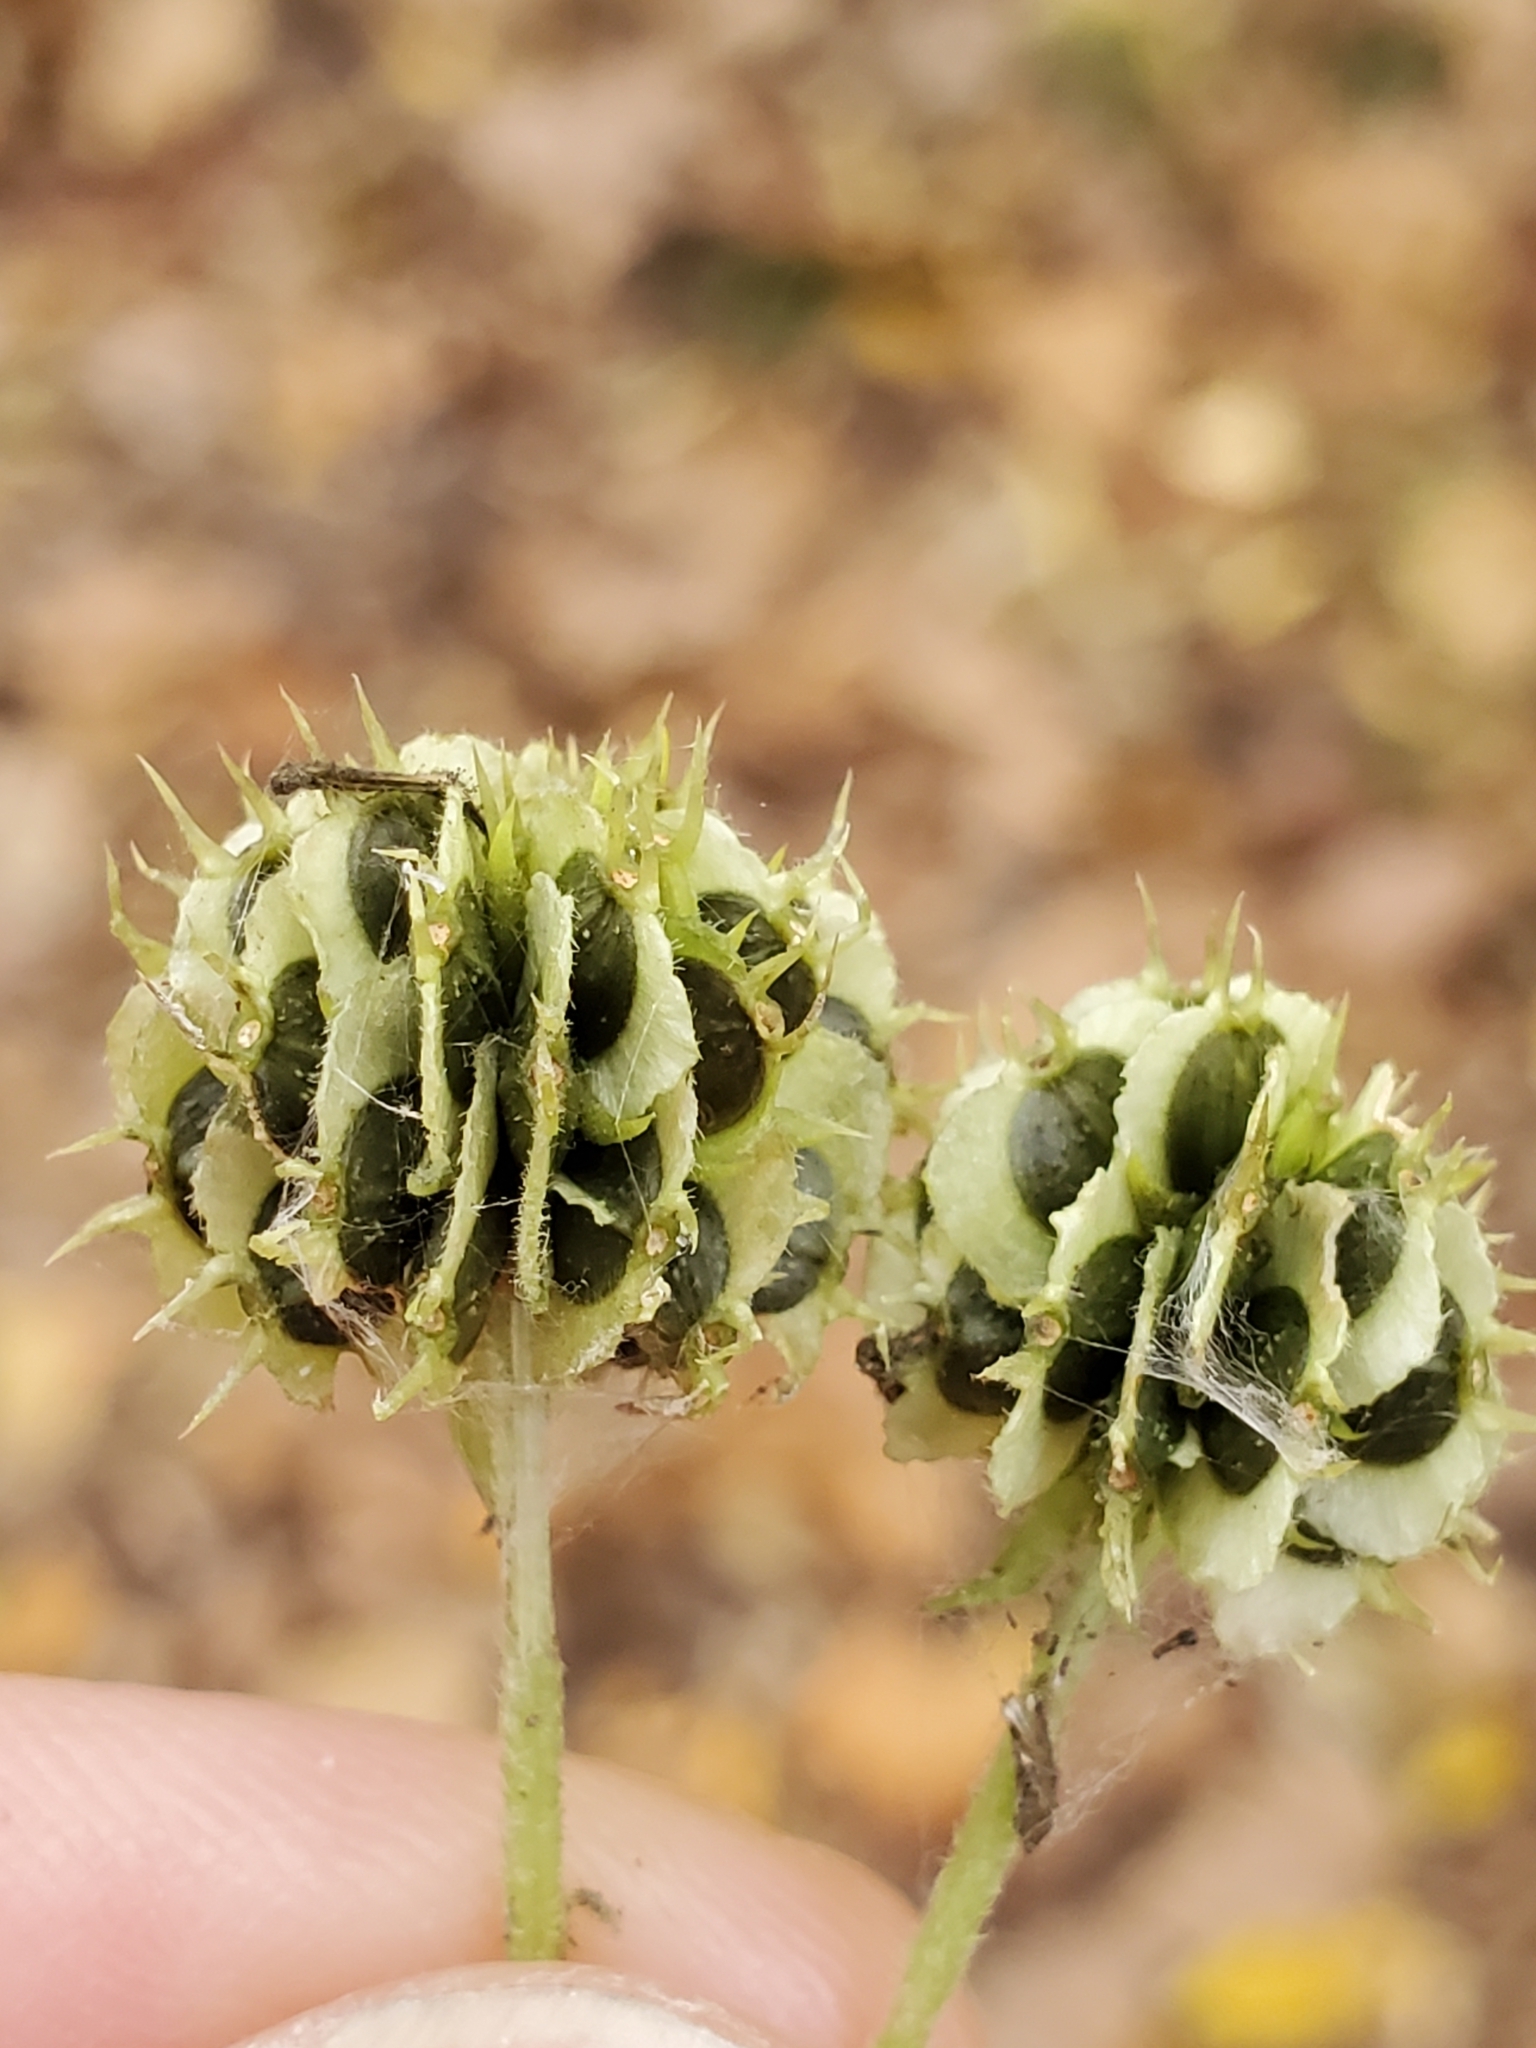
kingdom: Plantae
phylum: Tracheophyta
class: Magnoliopsida
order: Asterales
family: Asteraceae
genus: Verbesina
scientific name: Verbesina alternifolia
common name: Wingstem
